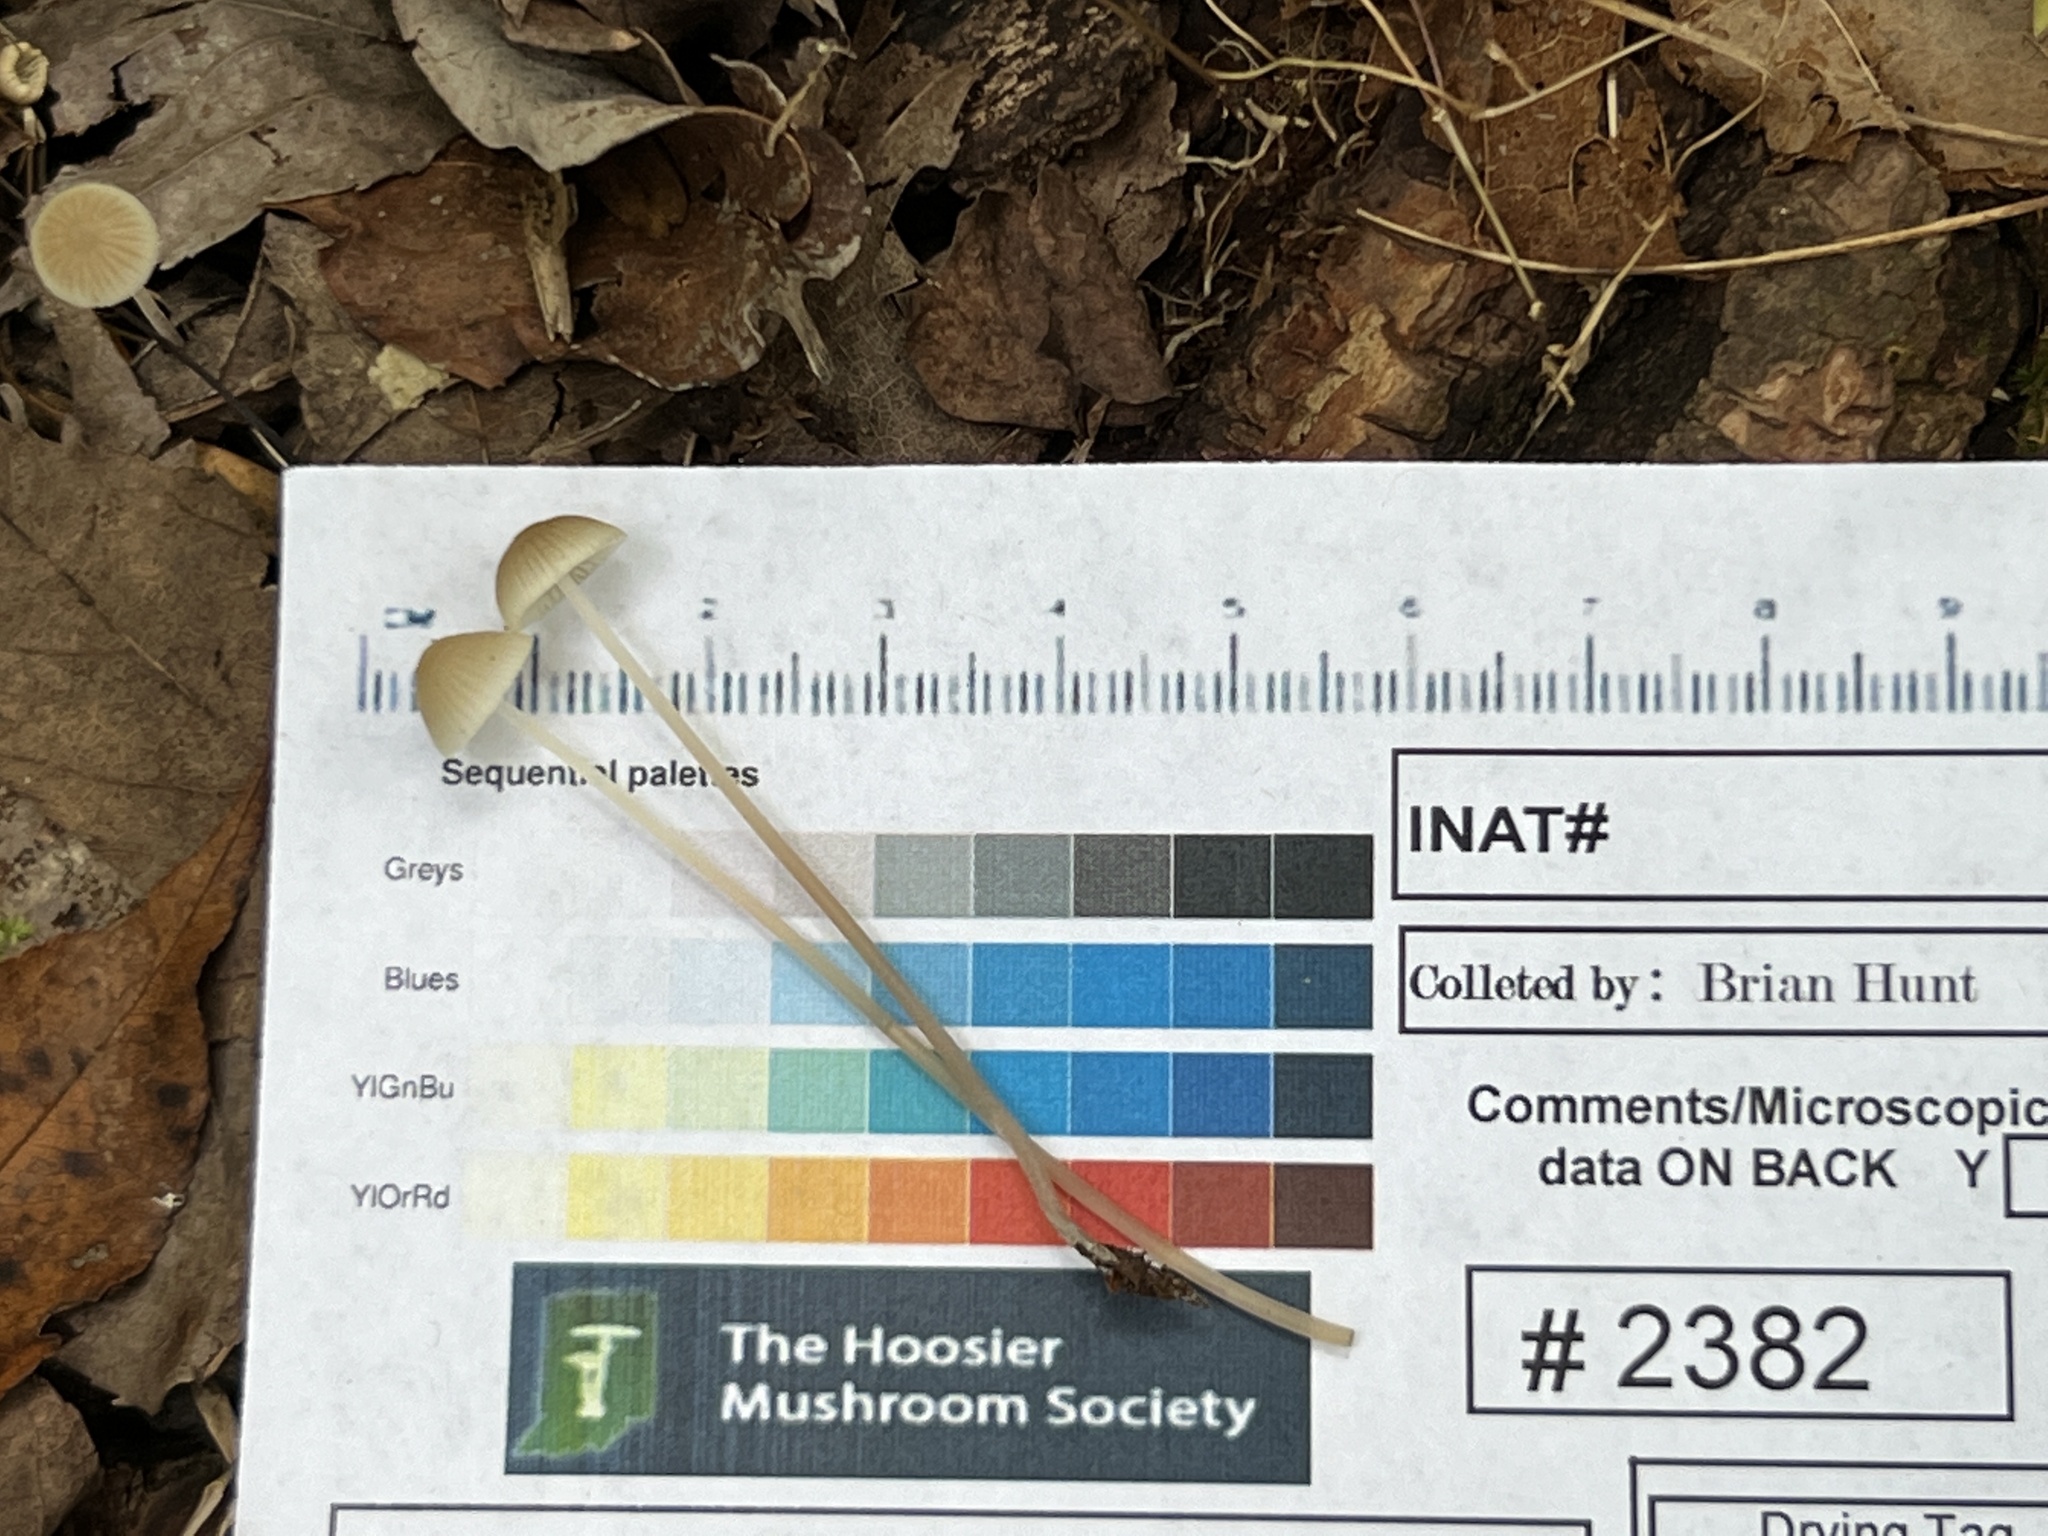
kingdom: Fungi
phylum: Basidiomycota
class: Agaricomycetes
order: Agaricales
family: Mycenaceae
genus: Mycena
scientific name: Mycena subcaerulea
